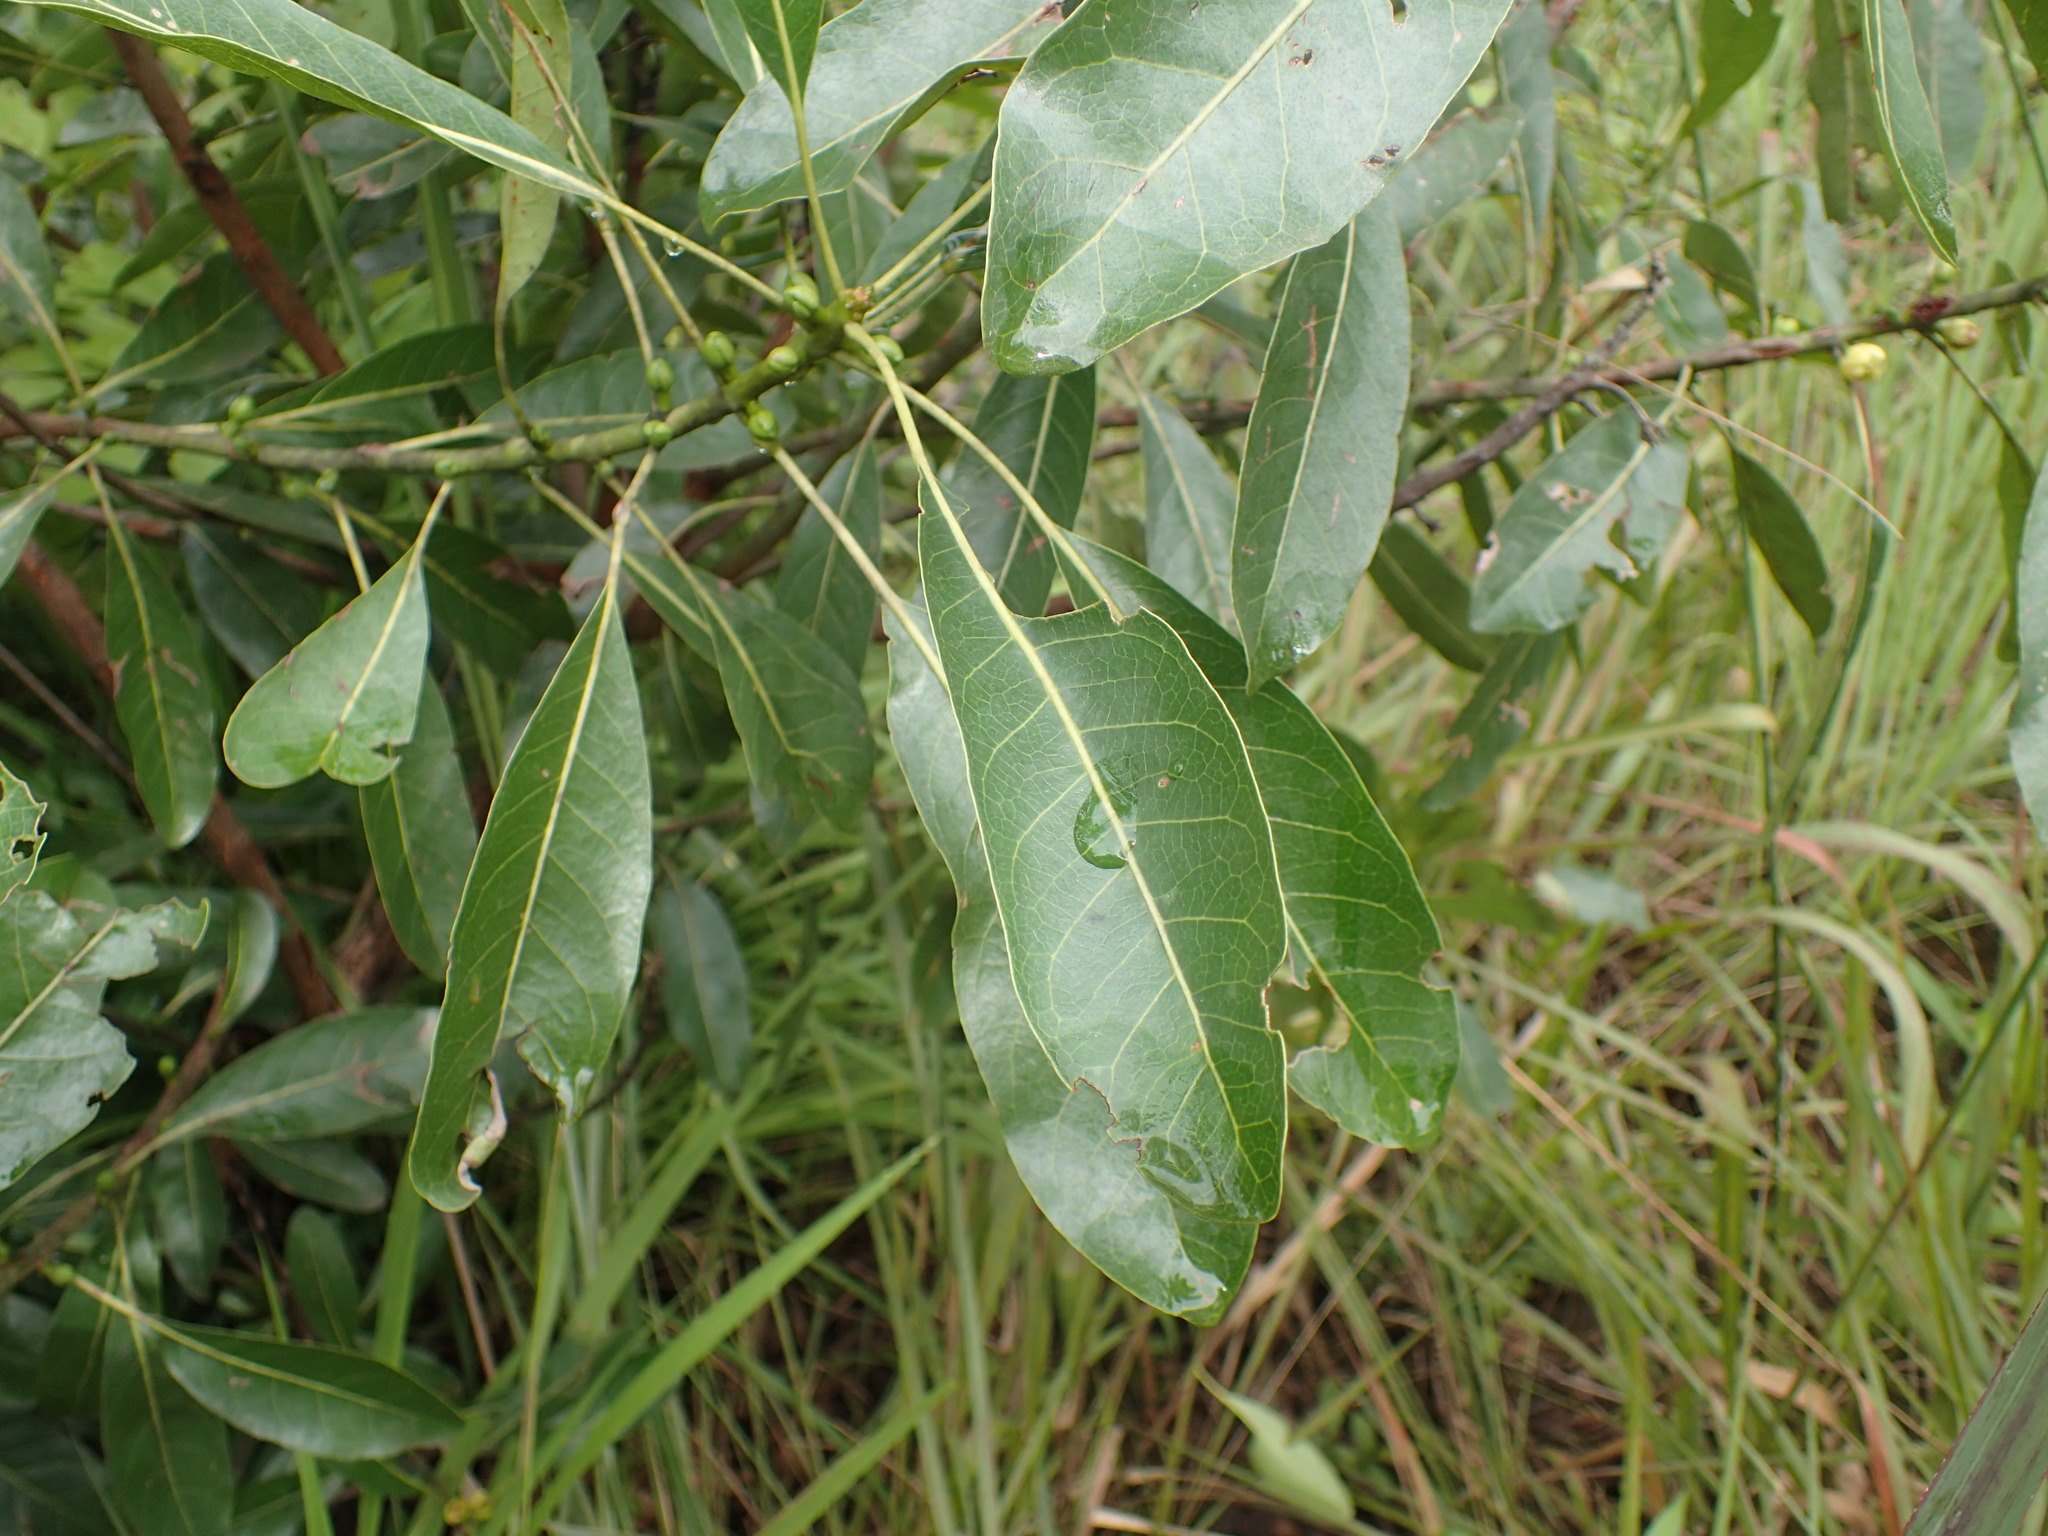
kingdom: Plantae
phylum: Tracheophyta
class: Magnoliopsida
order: Malpighiales
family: Phyllanthaceae
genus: Uapaca
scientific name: Uapaca nitida
